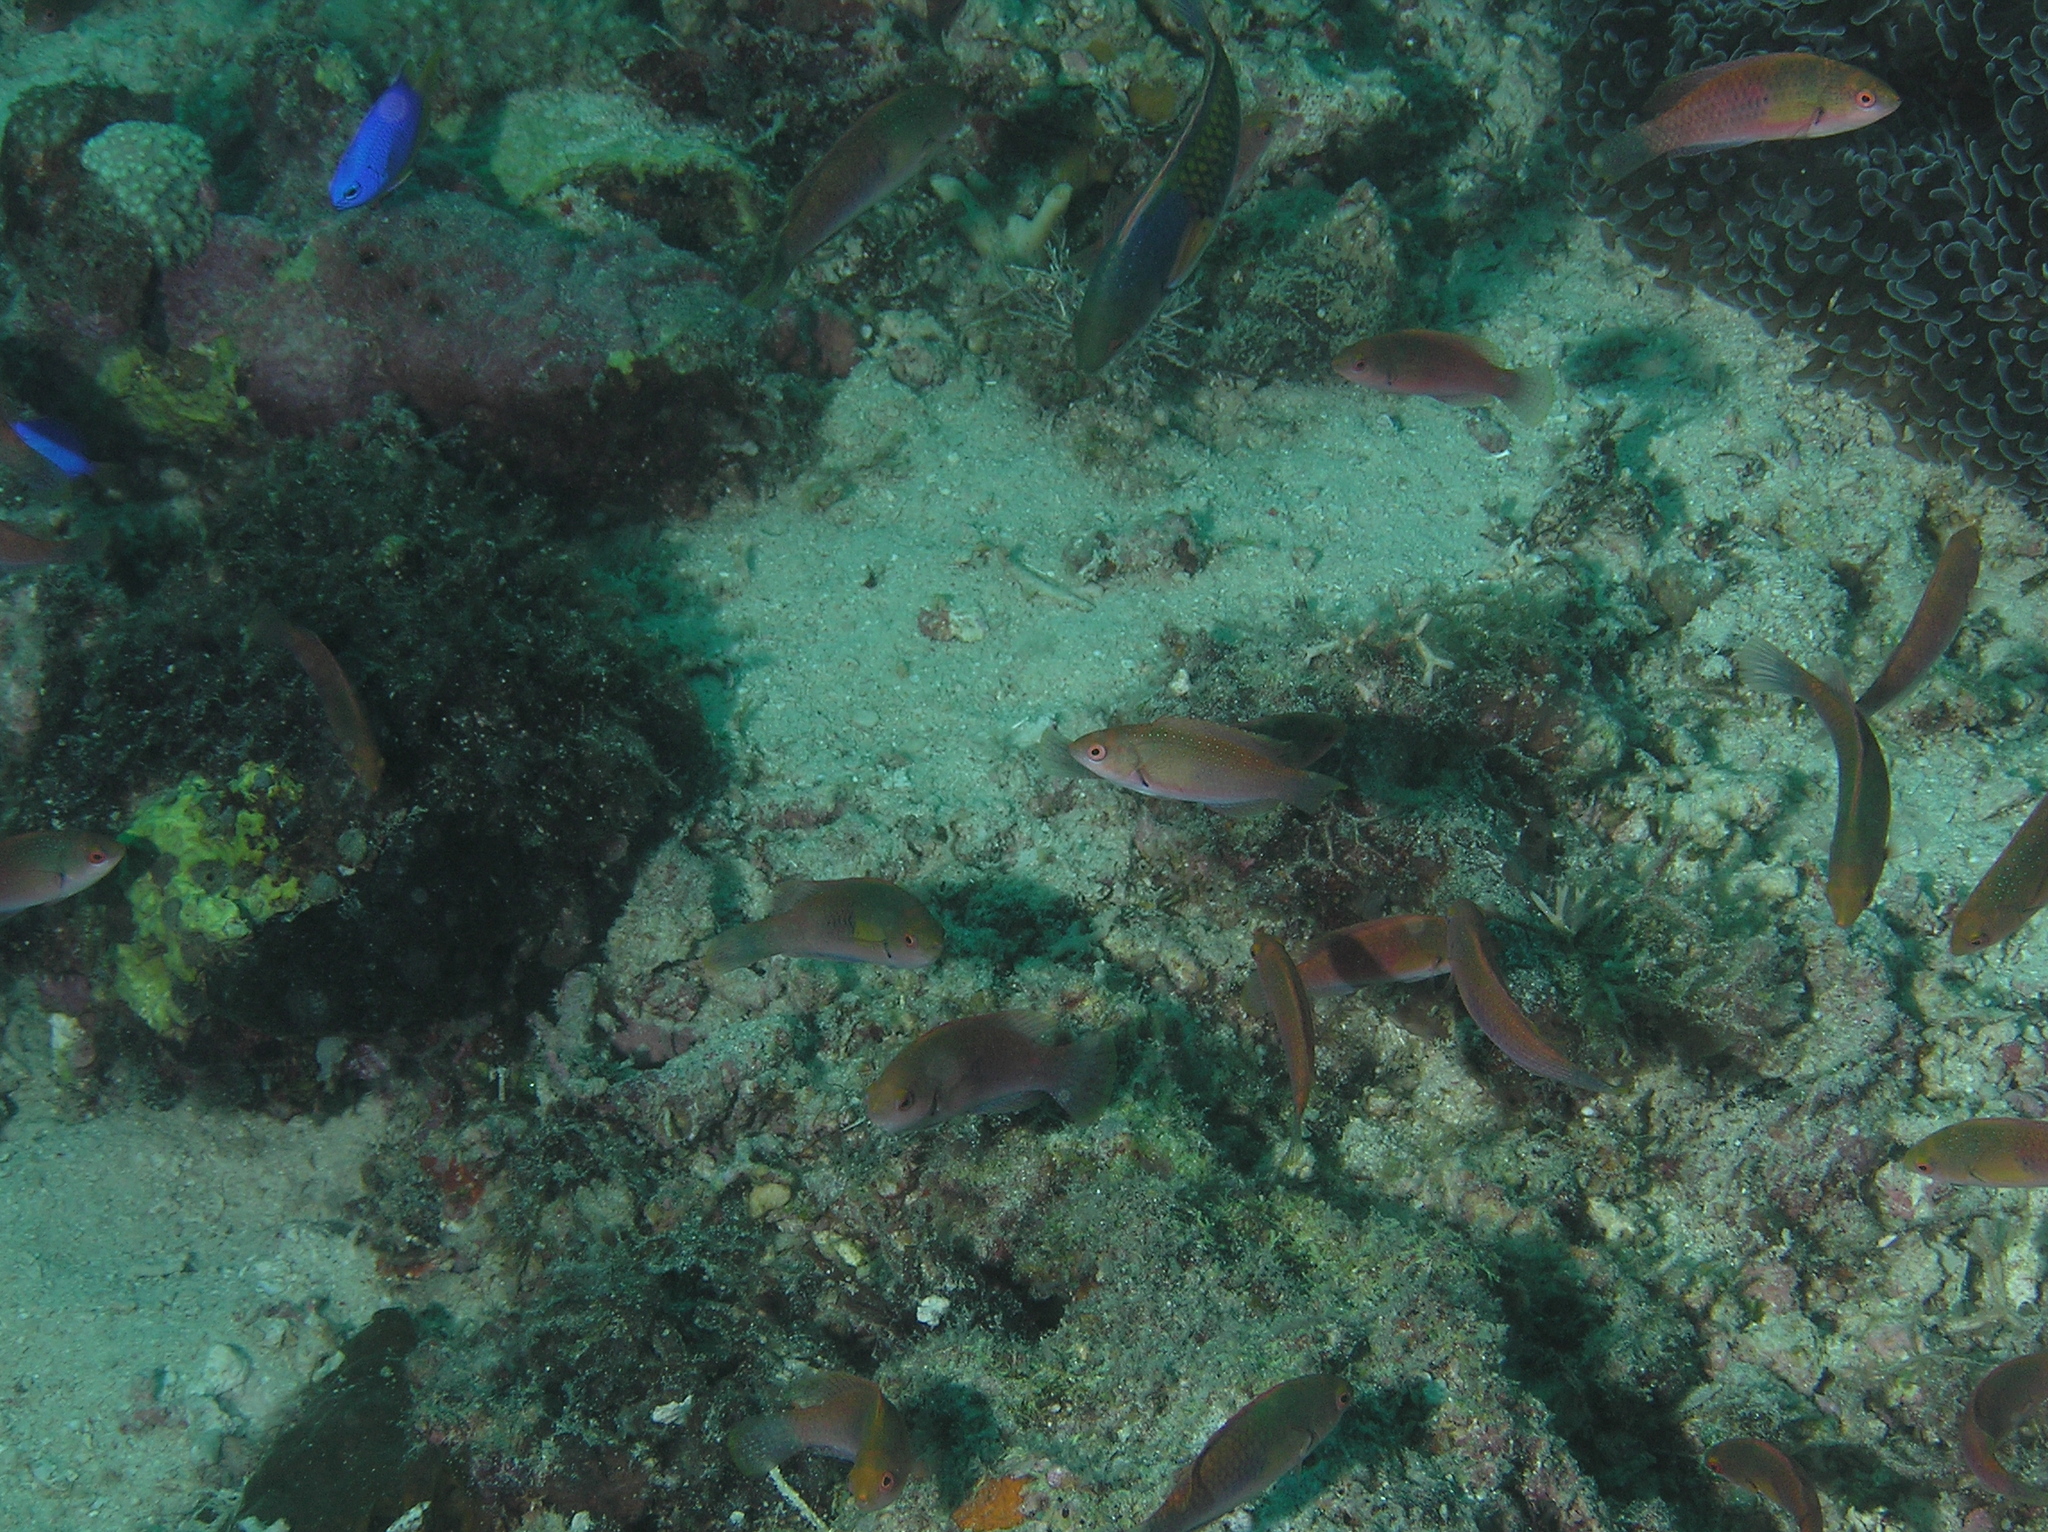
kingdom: Animalia
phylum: Chordata
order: Perciformes
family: Labridae
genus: Cirrhilabrus
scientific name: Cirrhilabrus cyanopleura
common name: Coralline wrasse
